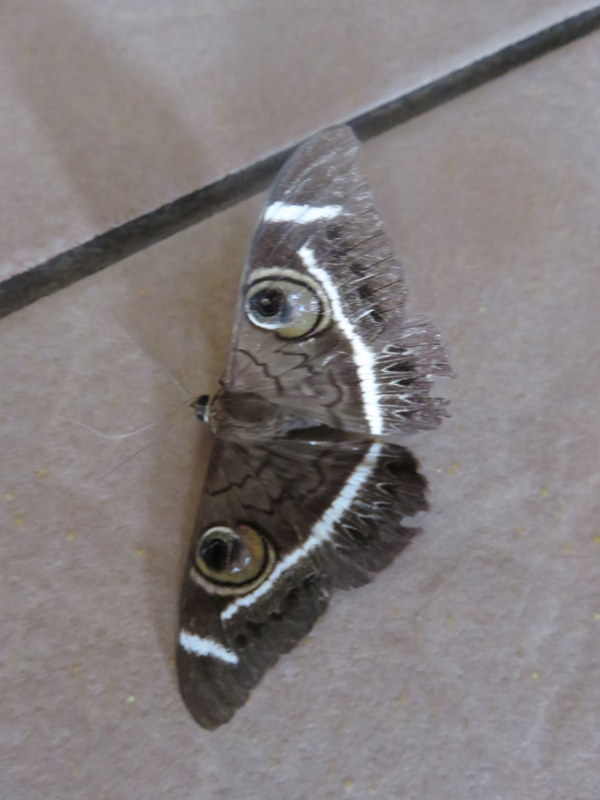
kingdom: Animalia
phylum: Arthropoda
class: Insecta
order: Lepidoptera
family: Erebidae
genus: Cyligramma
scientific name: Cyligramma latona
